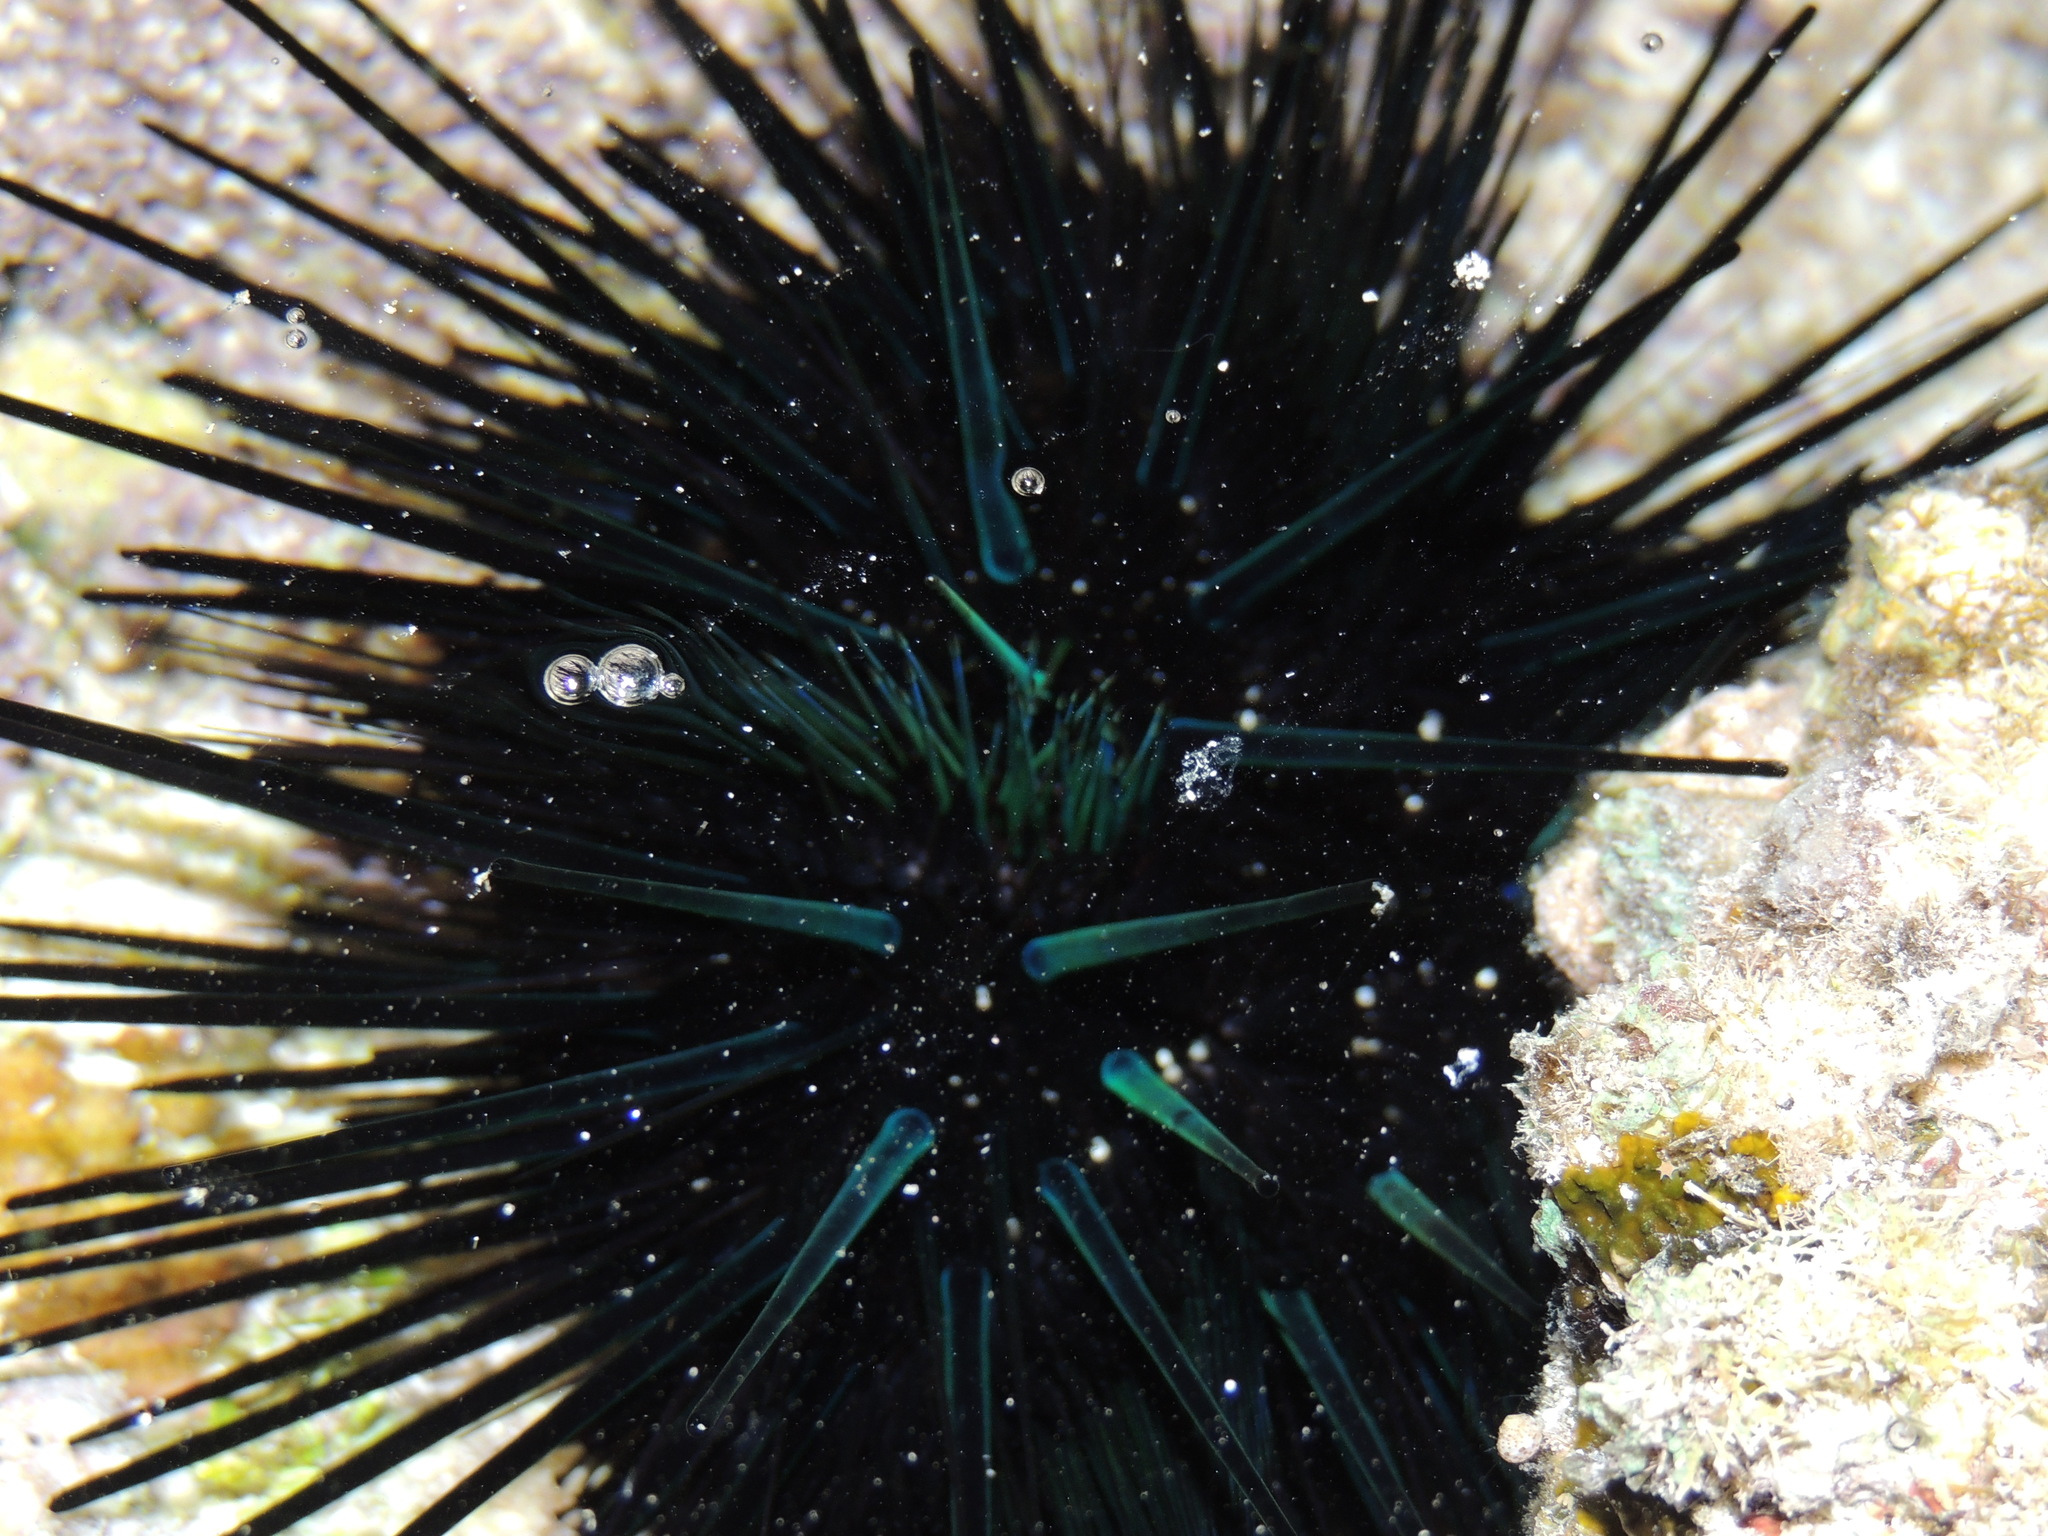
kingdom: Animalia
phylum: Echinodermata
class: Echinoidea
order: Diadematoida
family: Diadematidae
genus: Echinothrix
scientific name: Echinothrix diadema
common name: Schwarzer diademseeigel
